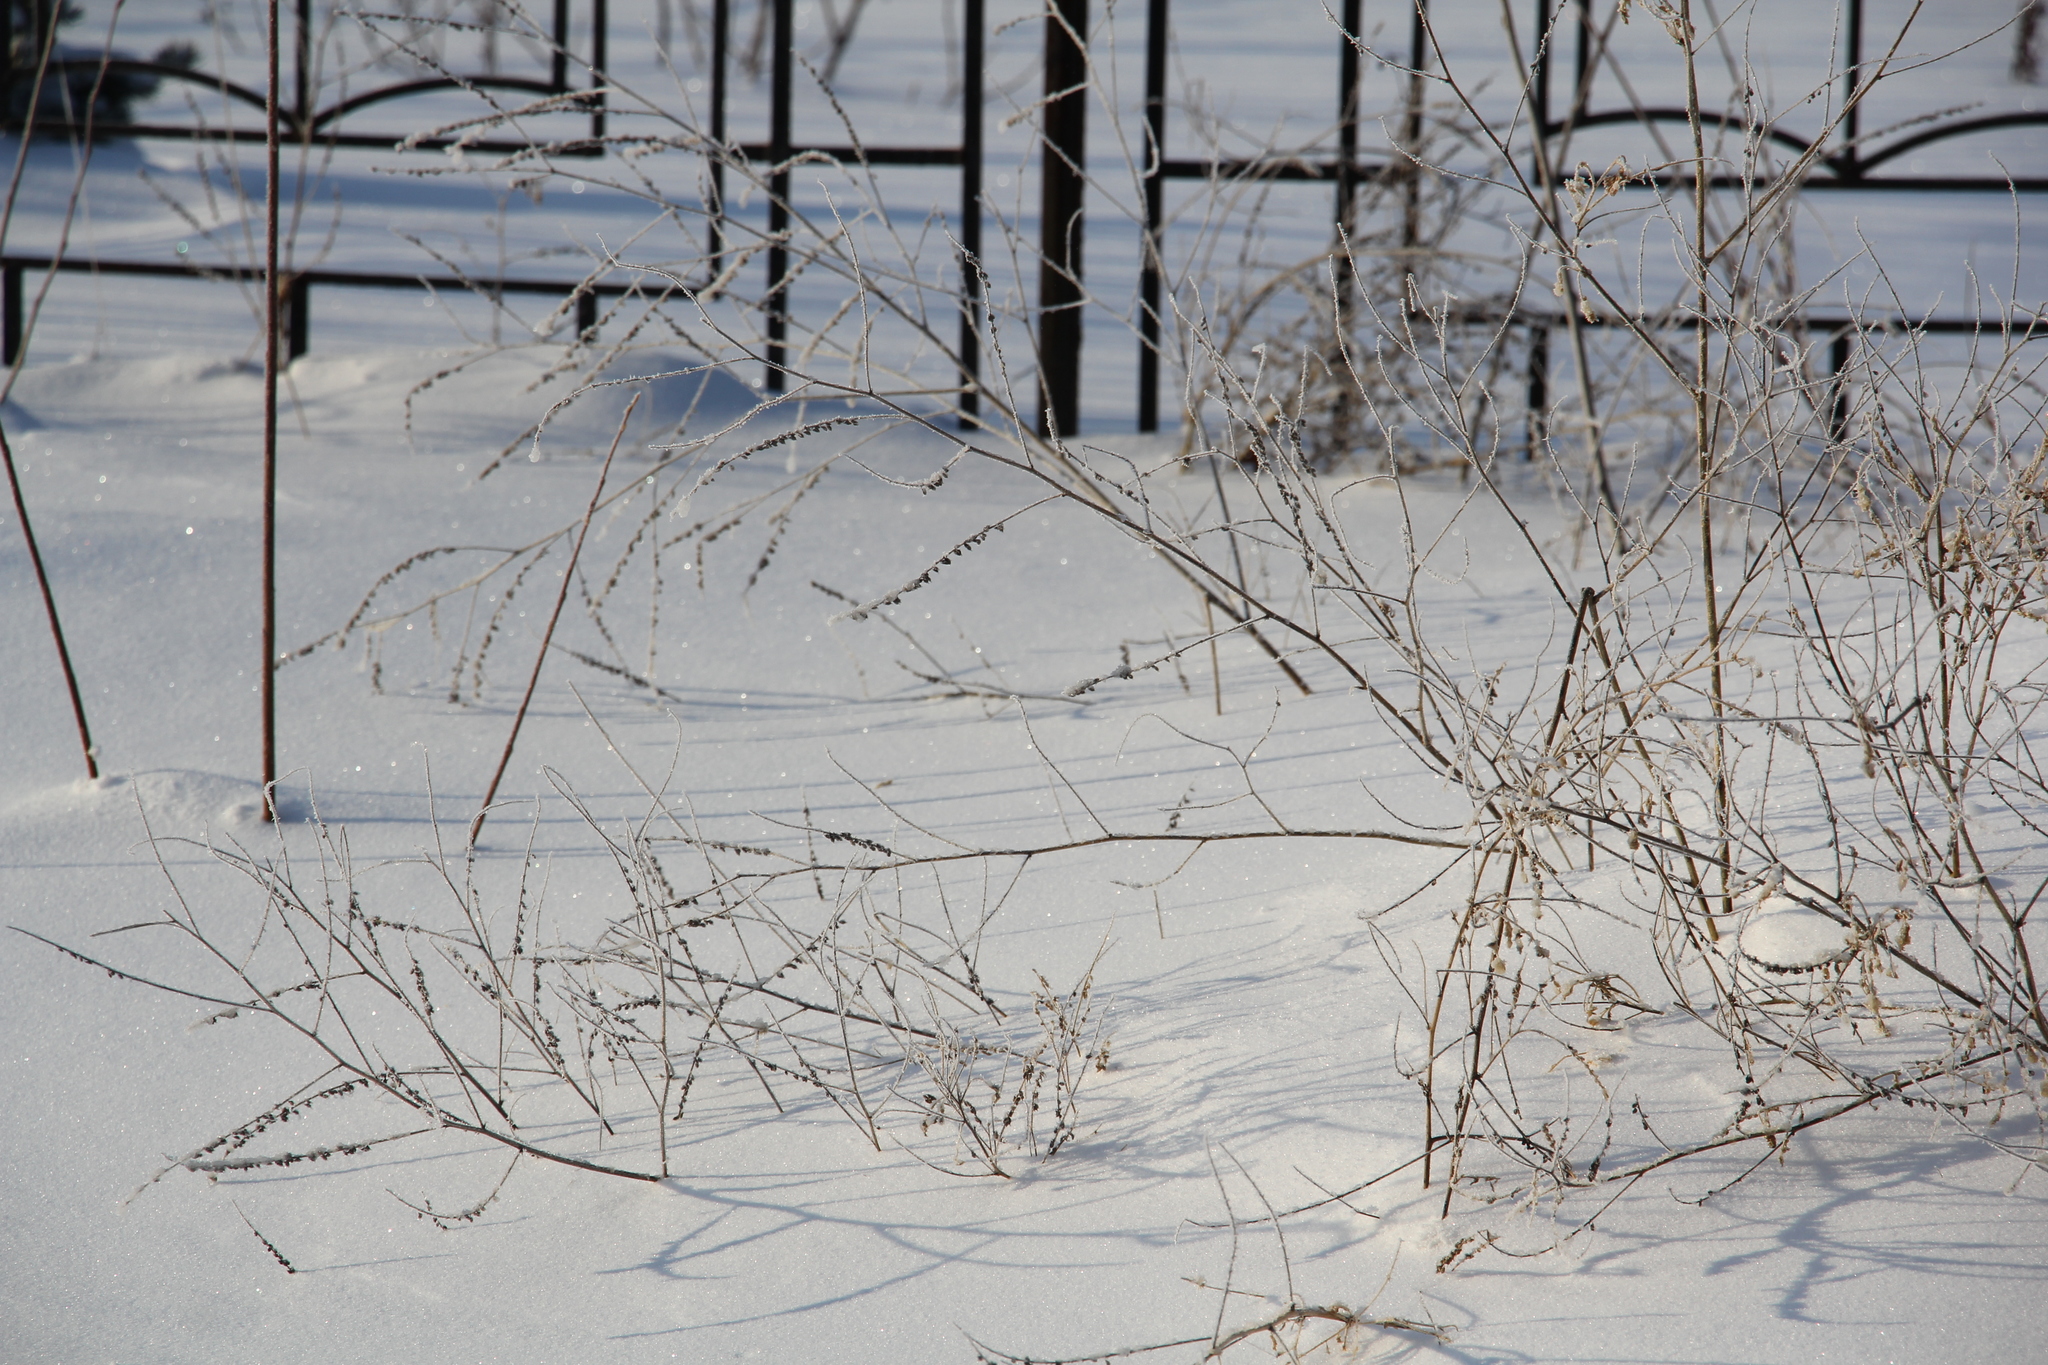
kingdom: Plantae
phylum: Tracheophyta
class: Magnoliopsida
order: Fabales
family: Fabaceae
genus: Melilotus
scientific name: Melilotus albus
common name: White melilot
